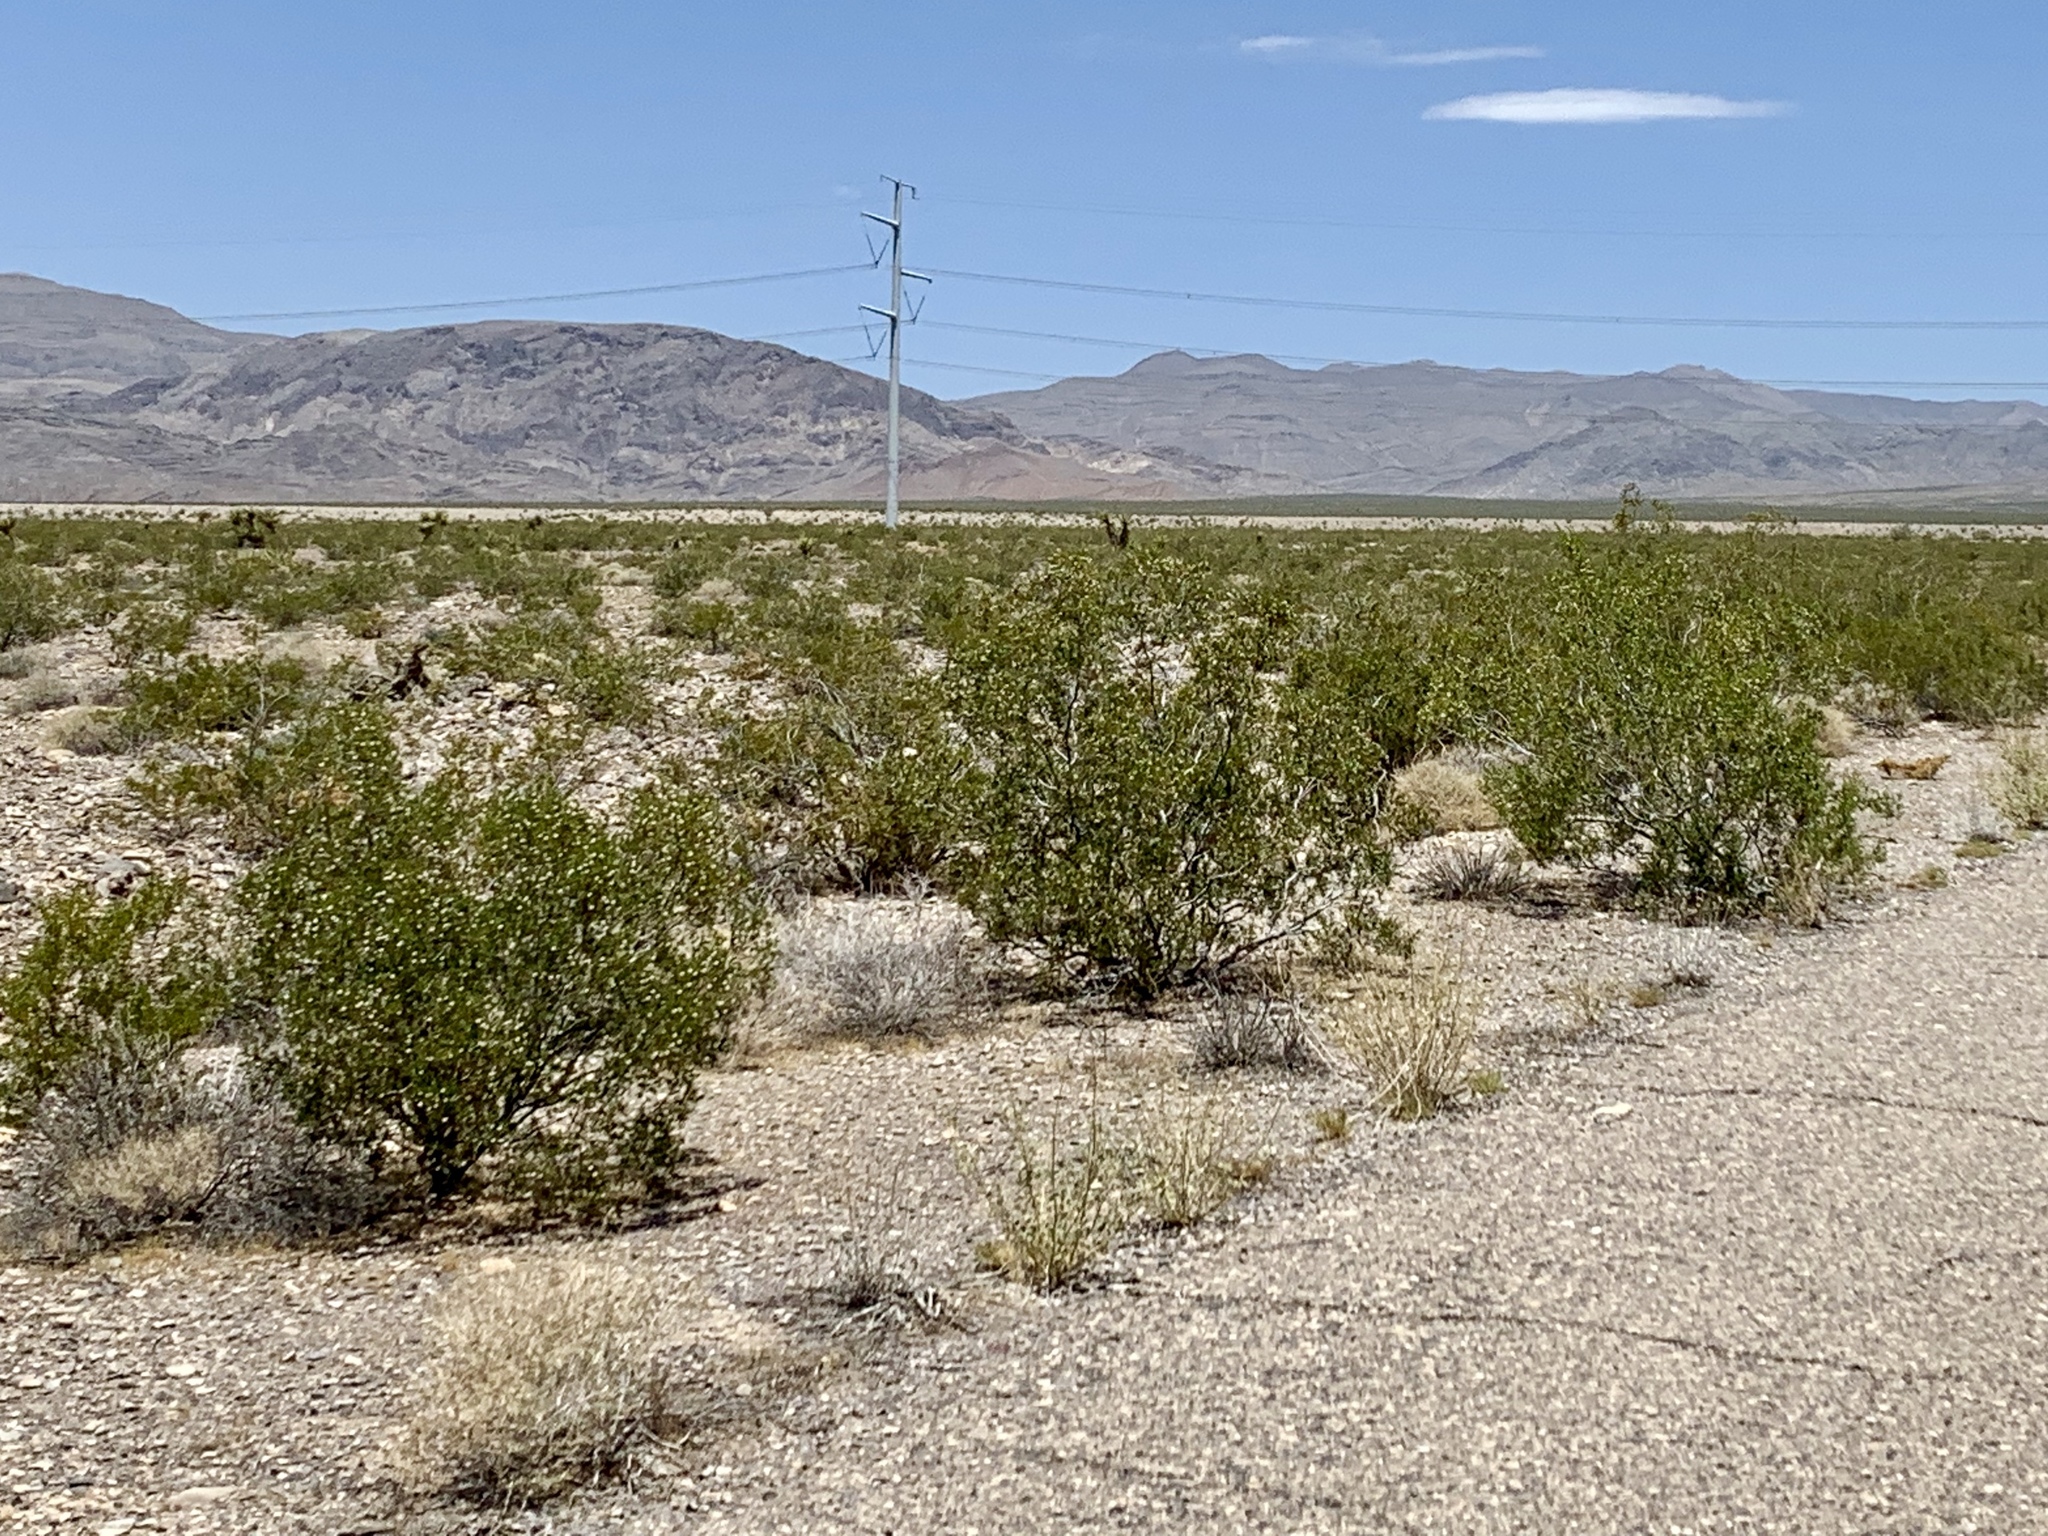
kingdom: Plantae
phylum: Tracheophyta
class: Magnoliopsida
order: Zygophyllales
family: Zygophyllaceae
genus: Larrea
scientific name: Larrea tridentata
